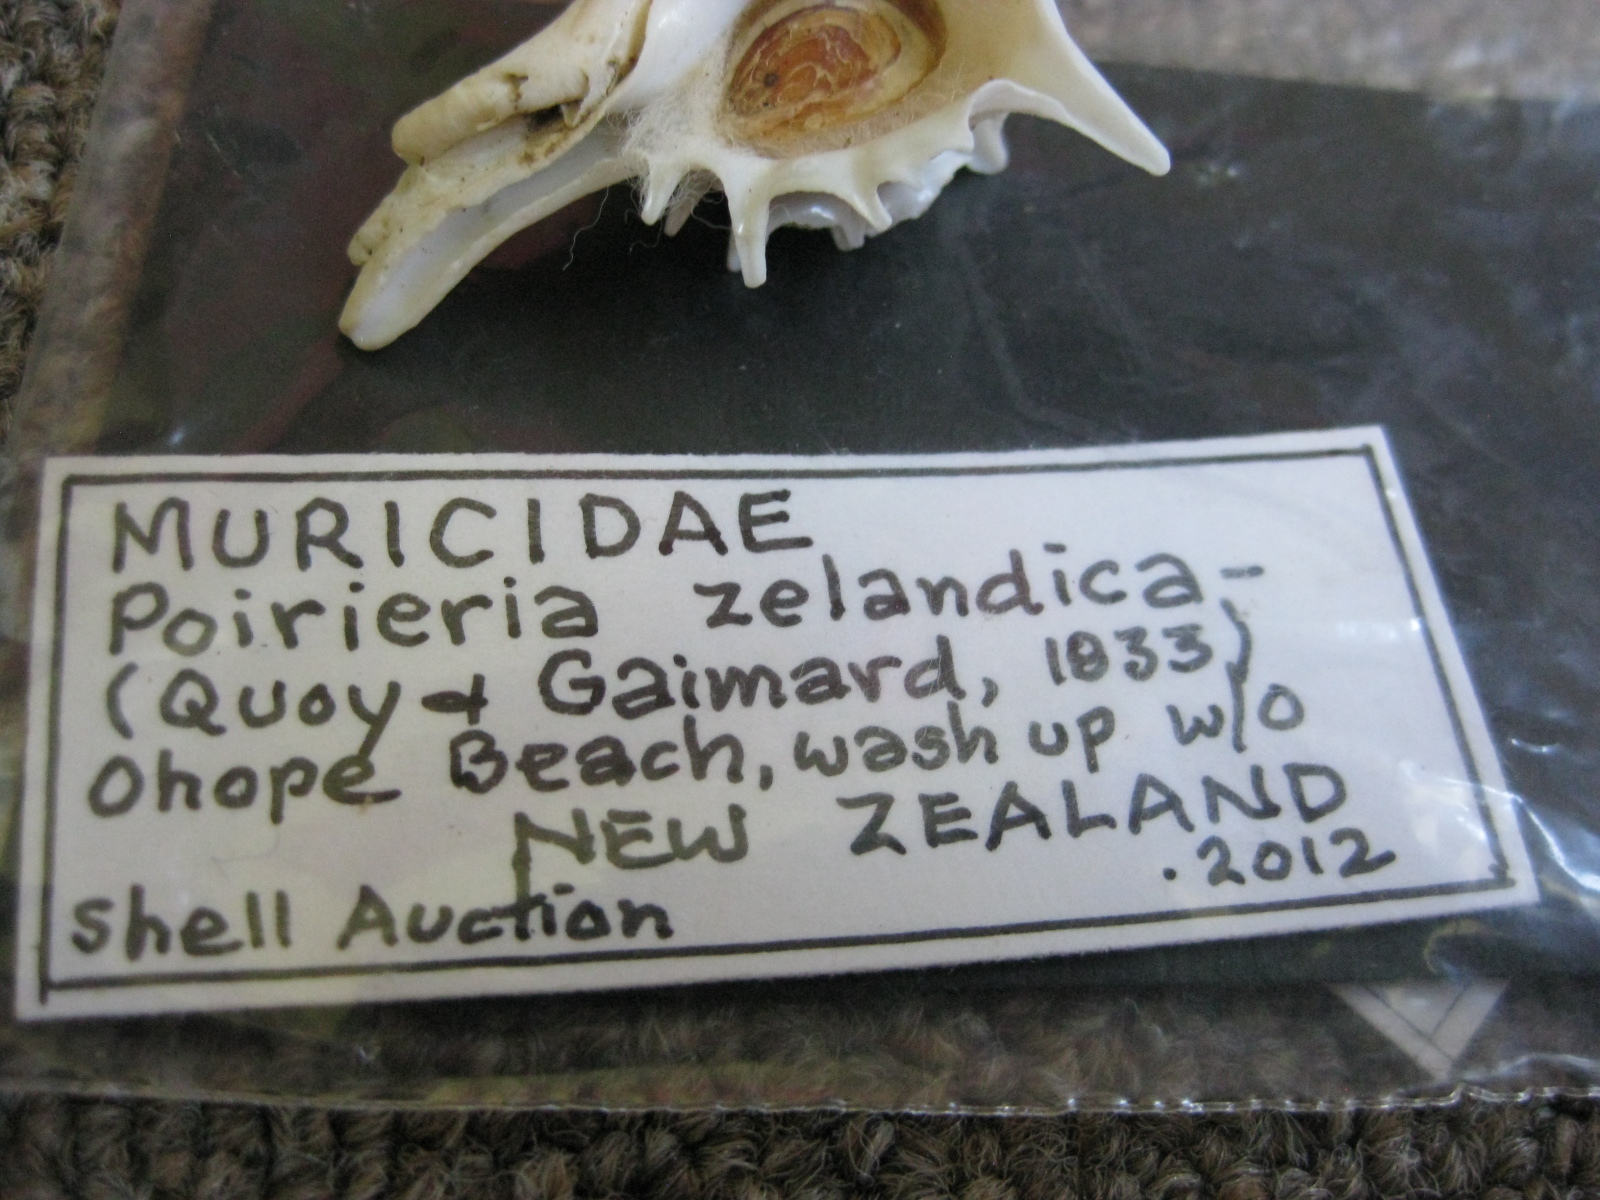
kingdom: Animalia
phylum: Mollusca
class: Gastropoda
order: Neogastropoda
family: Muricidae
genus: Poirieria
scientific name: Poirieria zelandica
